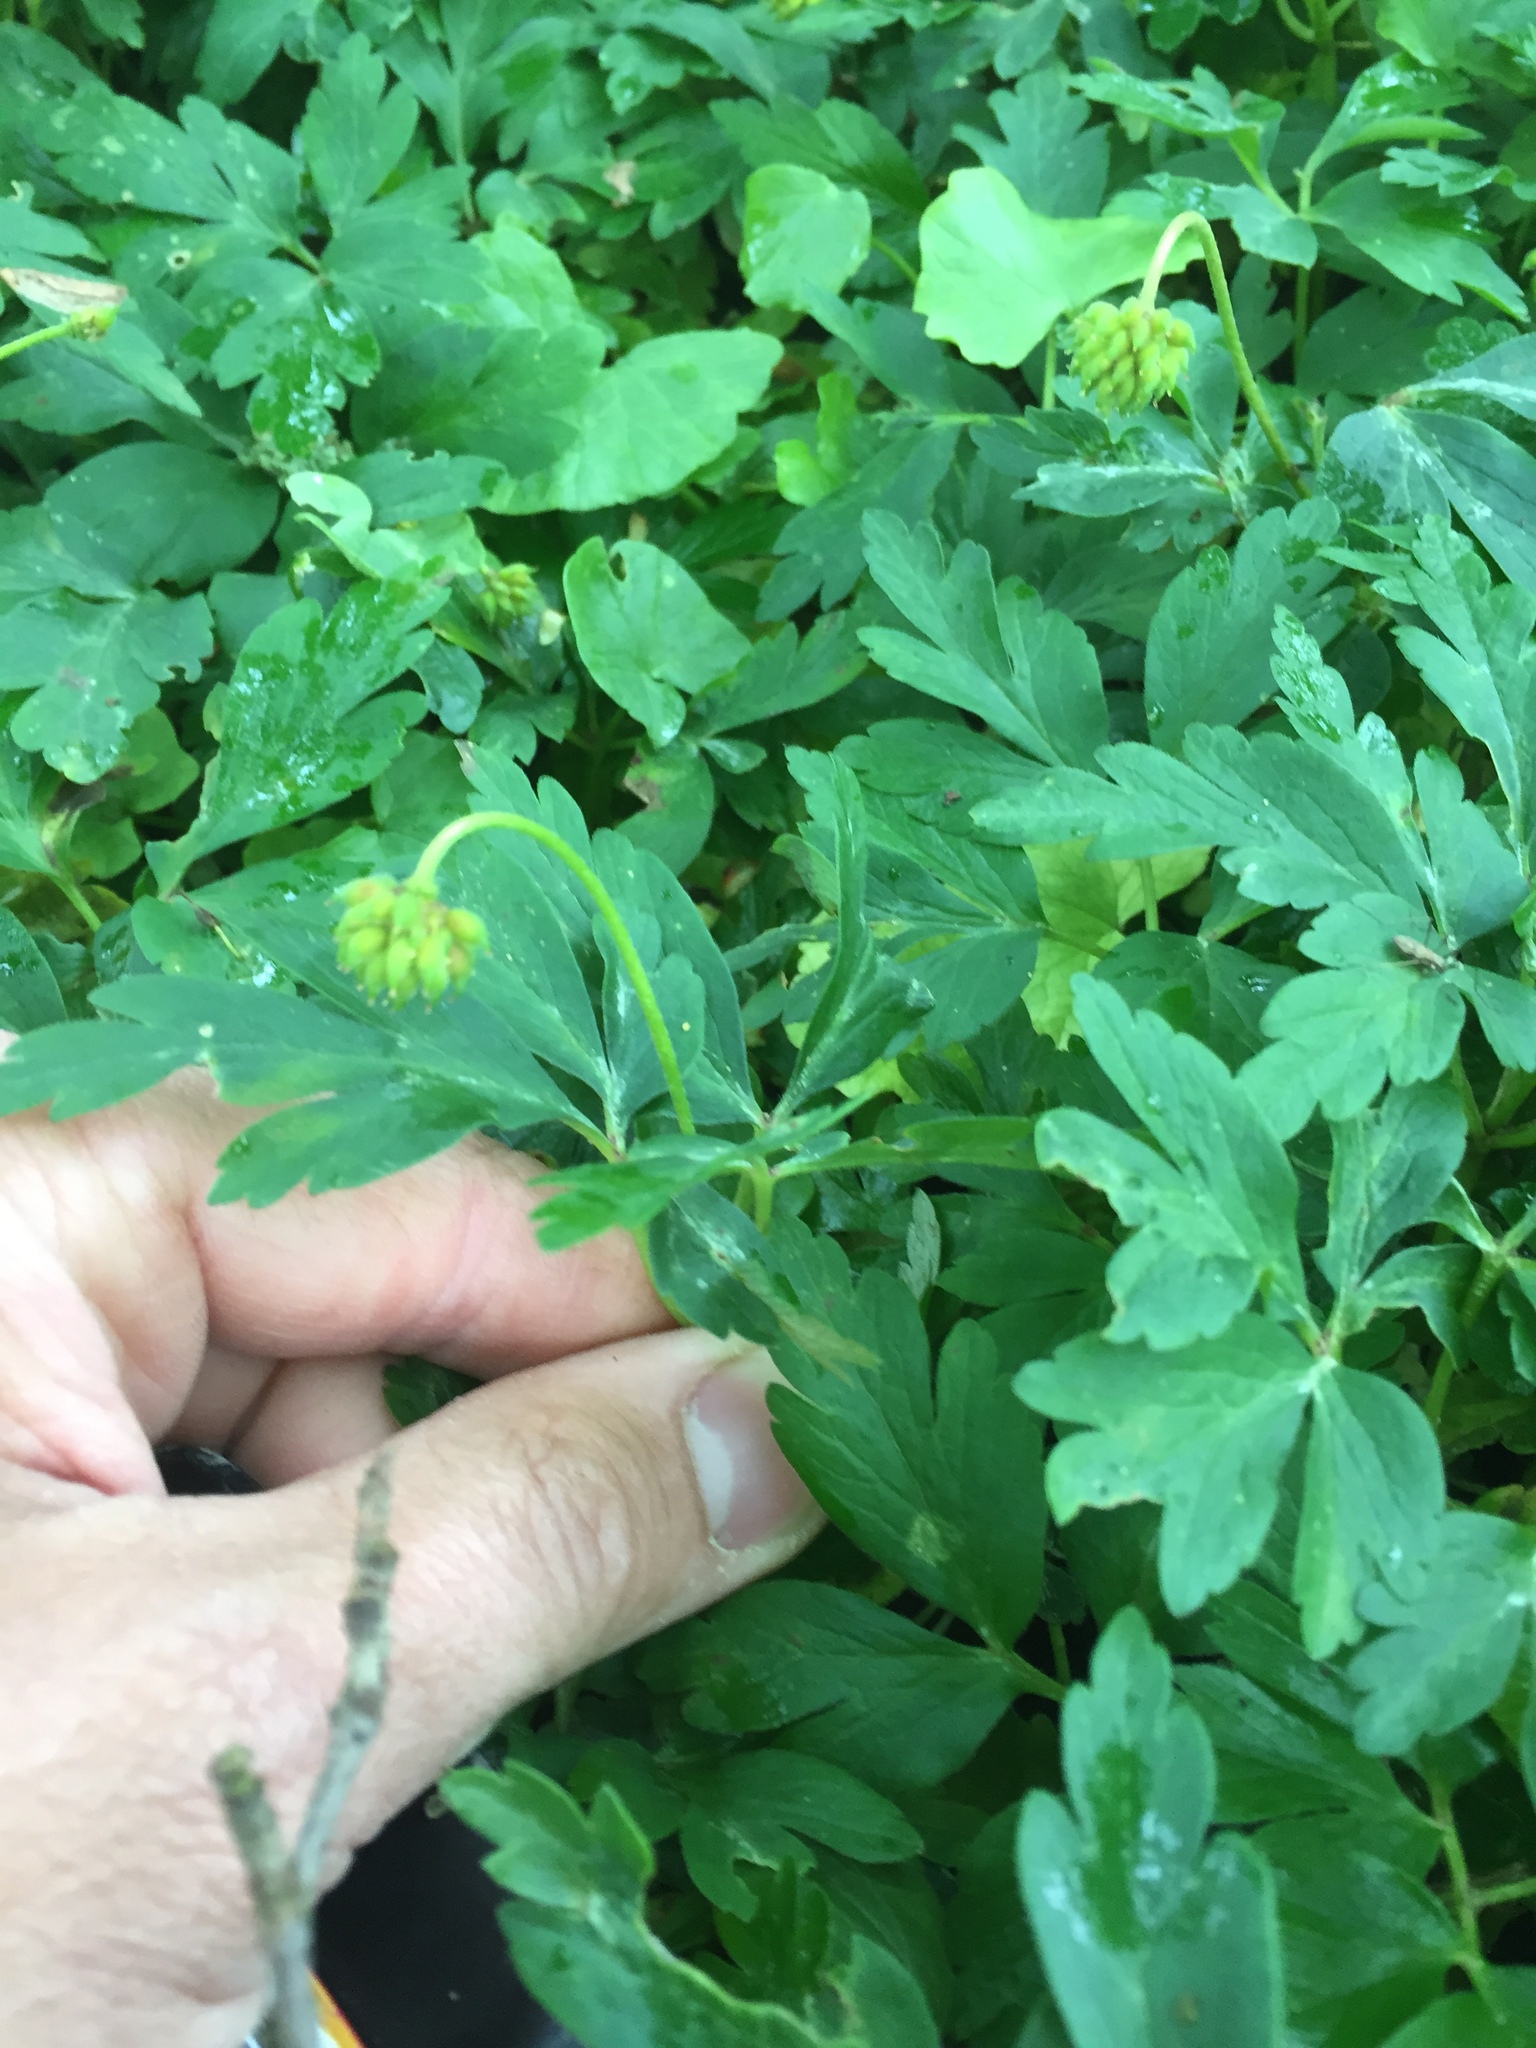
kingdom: Plantae
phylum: Tracheophyta
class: Magnoliopsida
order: Ranunculales
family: Ranunculaceae
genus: Anemone
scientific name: Anemone nemorosa
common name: Wood anemone
